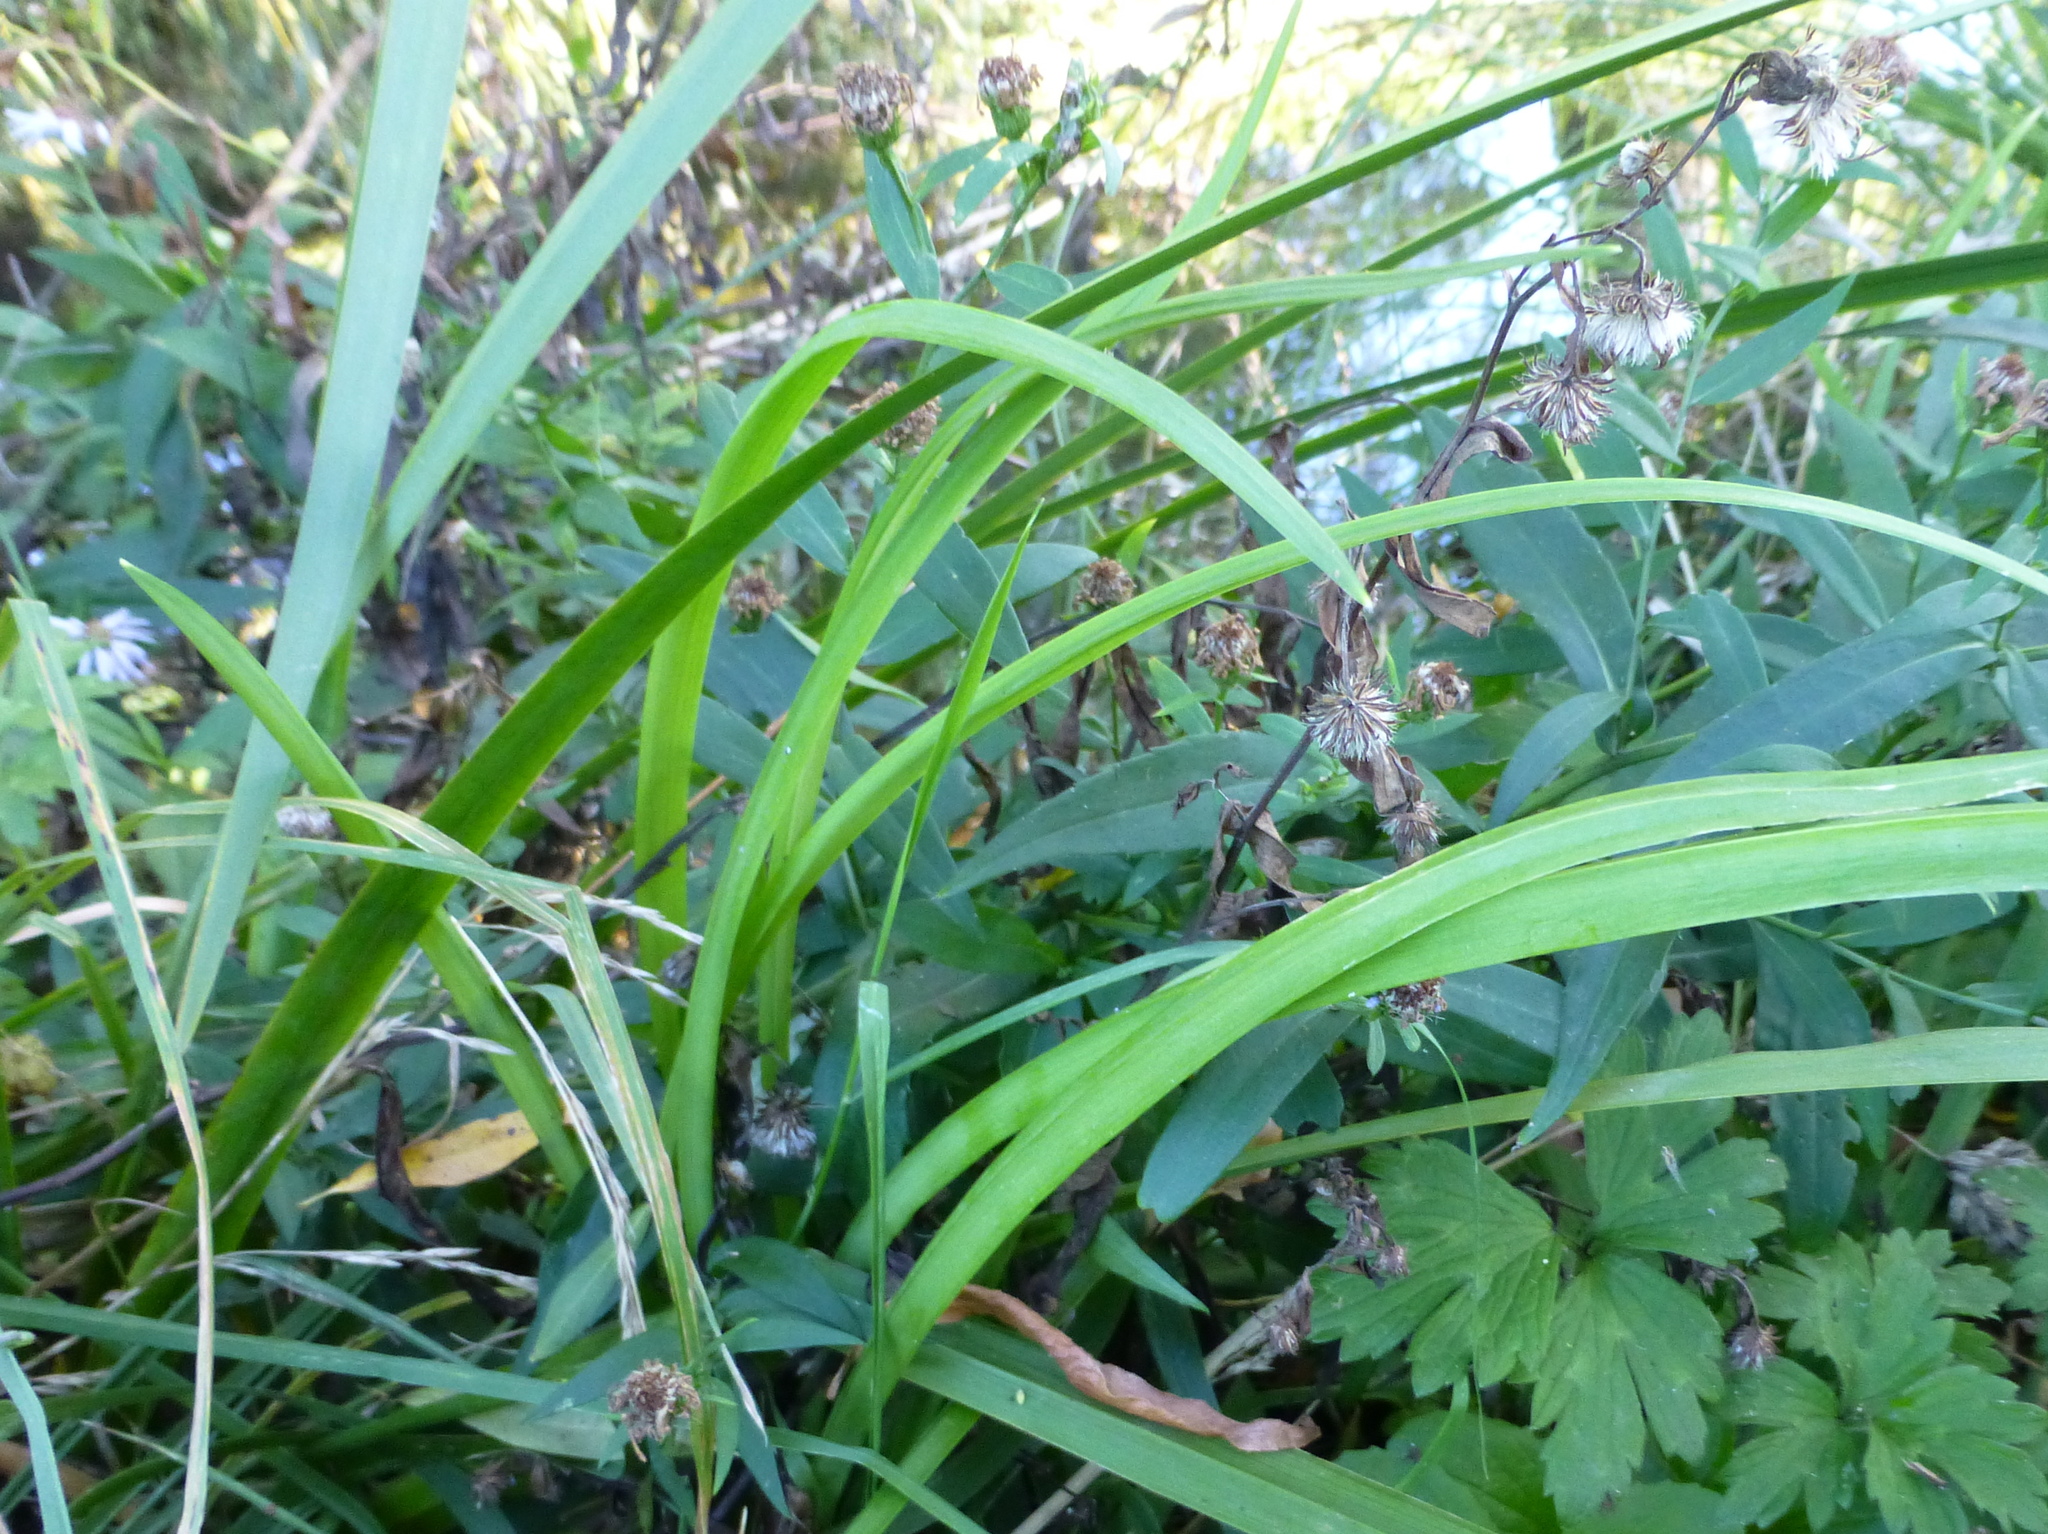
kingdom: Plantae
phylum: Tracheophyta
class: Liliopsida
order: Asparagales
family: Iridaceae
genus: Iris
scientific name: Iris pseudacorus
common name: Yellow flag
